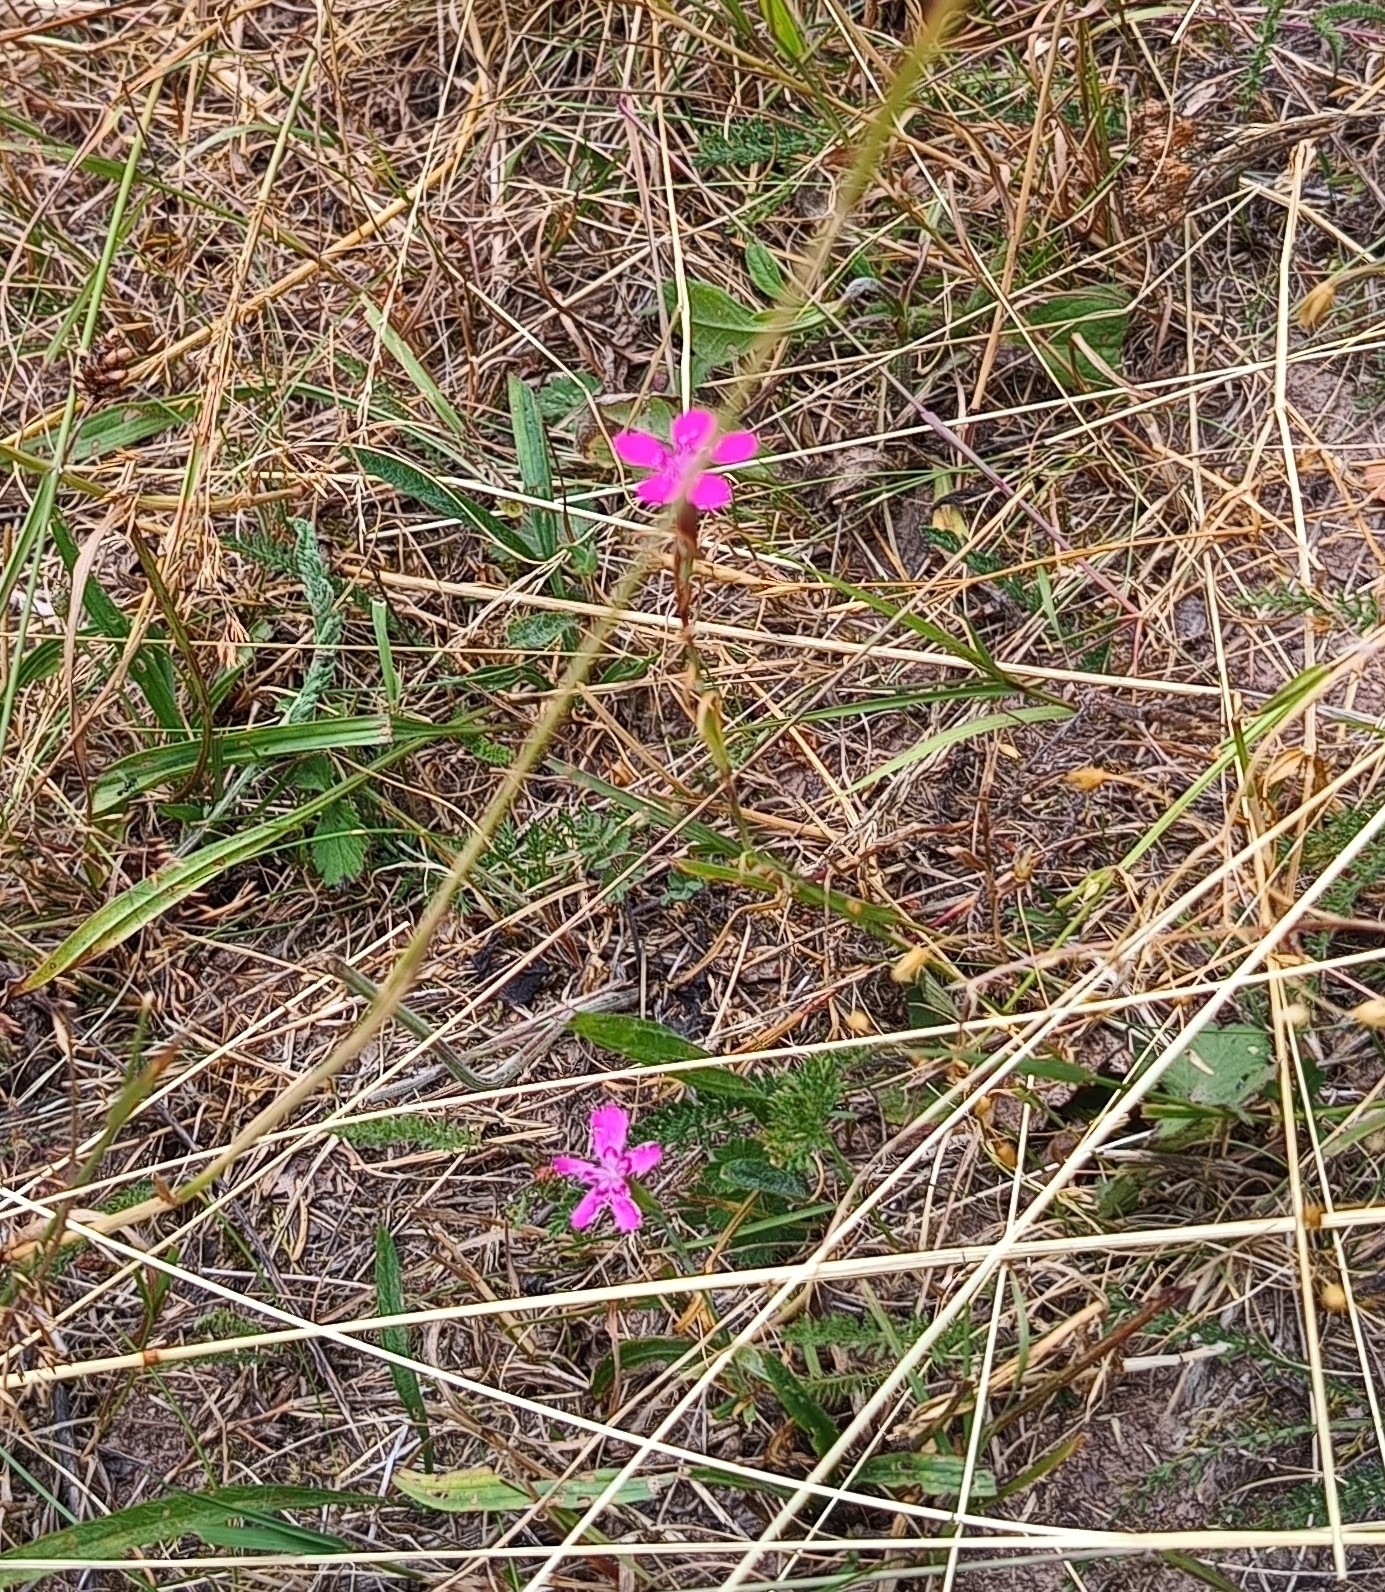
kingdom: Plantae
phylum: Tracheophyta
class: Magnoliopsida
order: Caryophyllales
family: Caryophyllaceae
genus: Dianthus
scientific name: Dianthus deltoides
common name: Maiden pink
